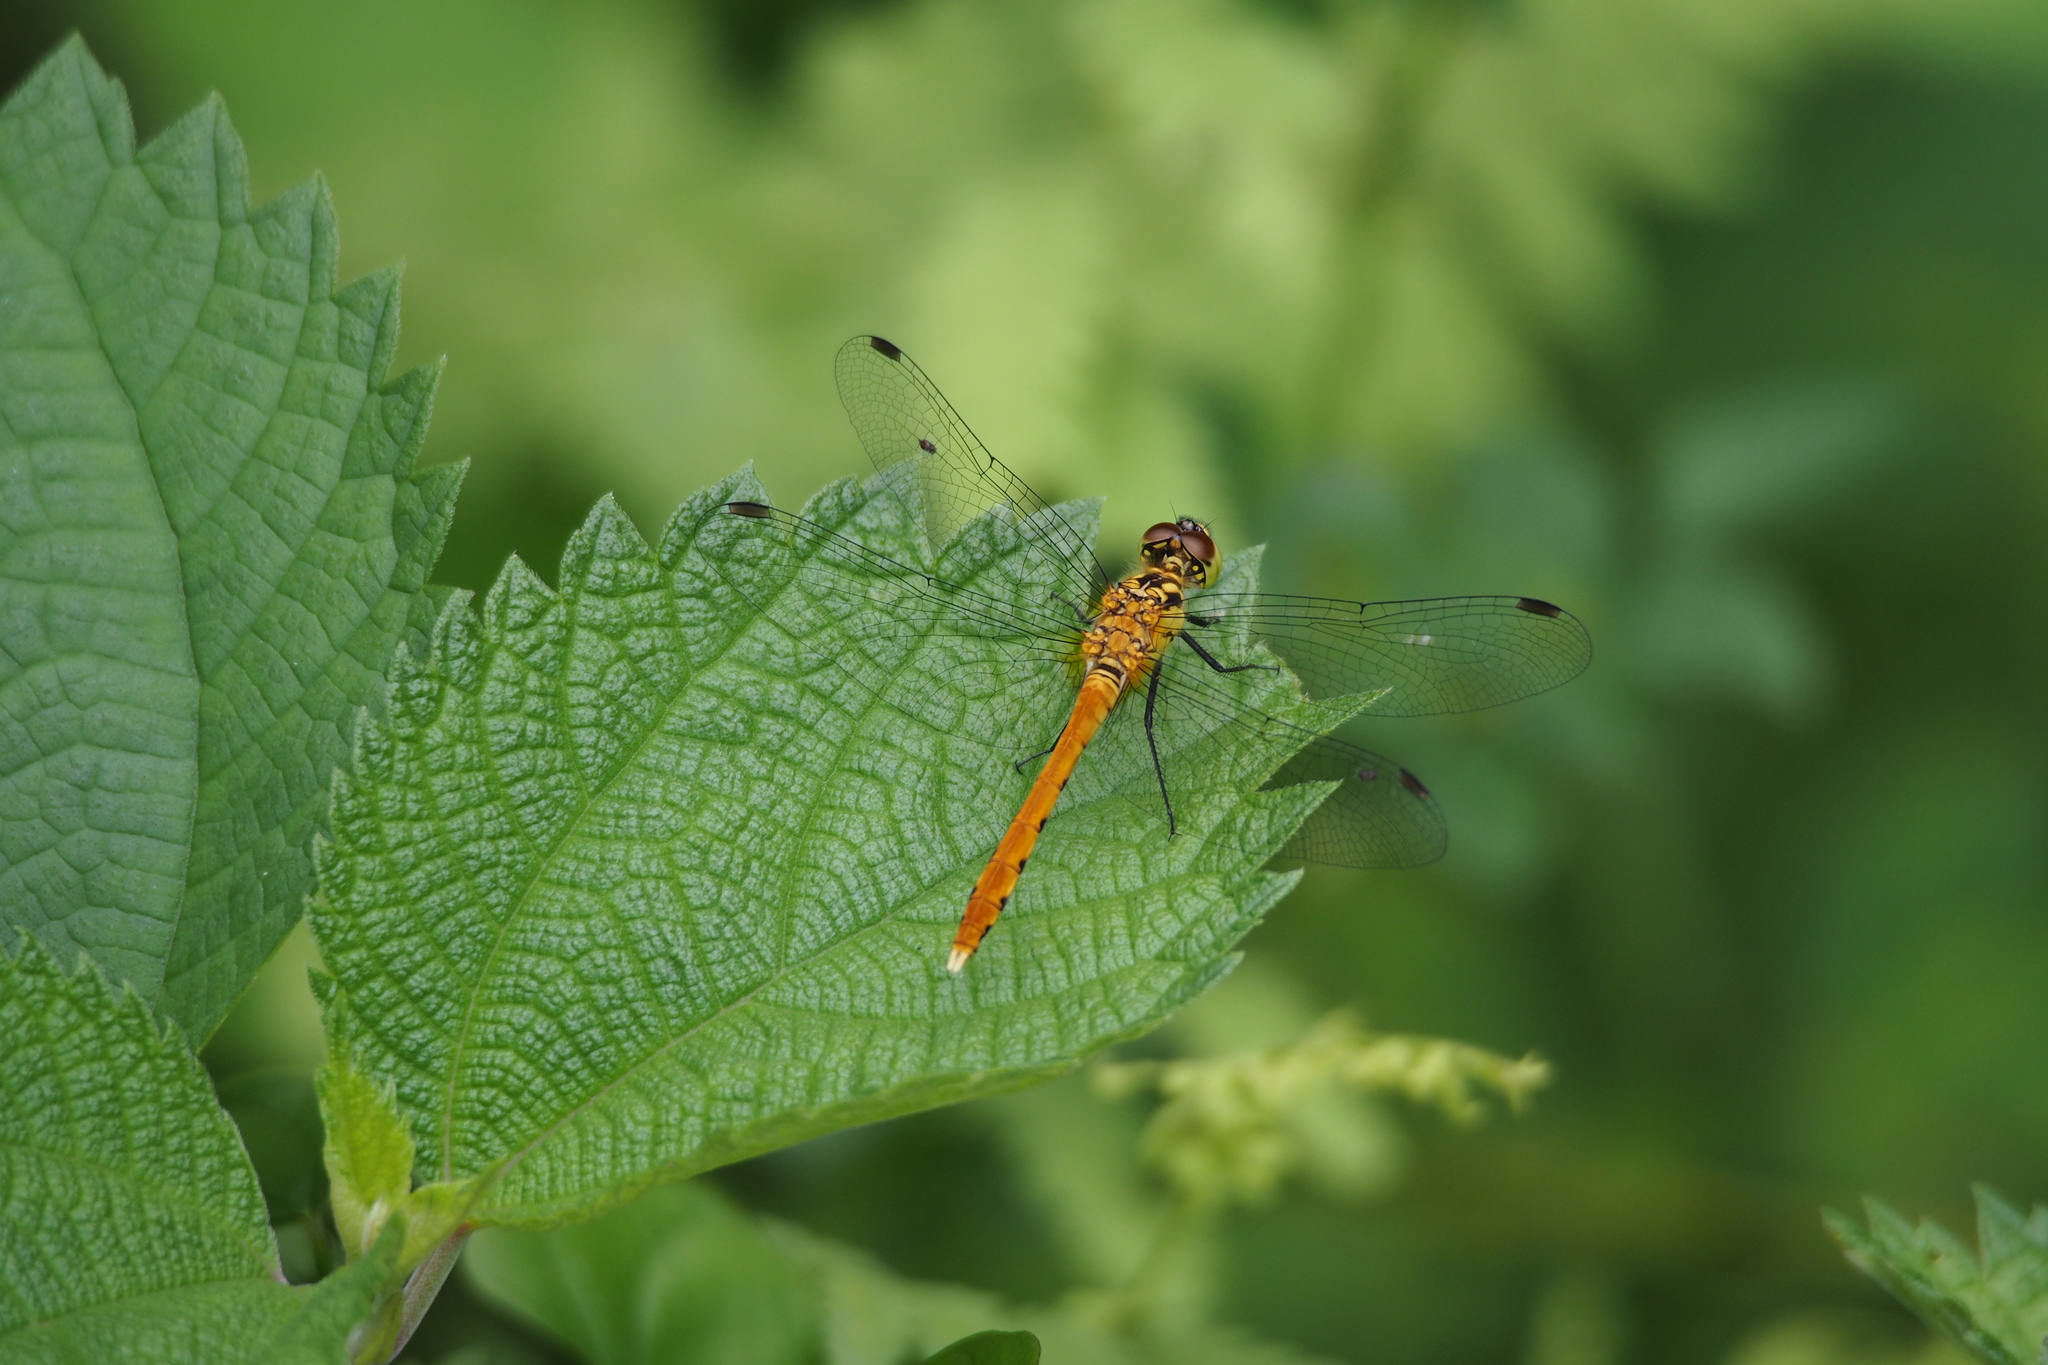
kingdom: Animalia
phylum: Arthropoda
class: Insecta
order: Odonata
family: Libellulidae
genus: Sympetrum
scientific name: Sympetrum parvulum
